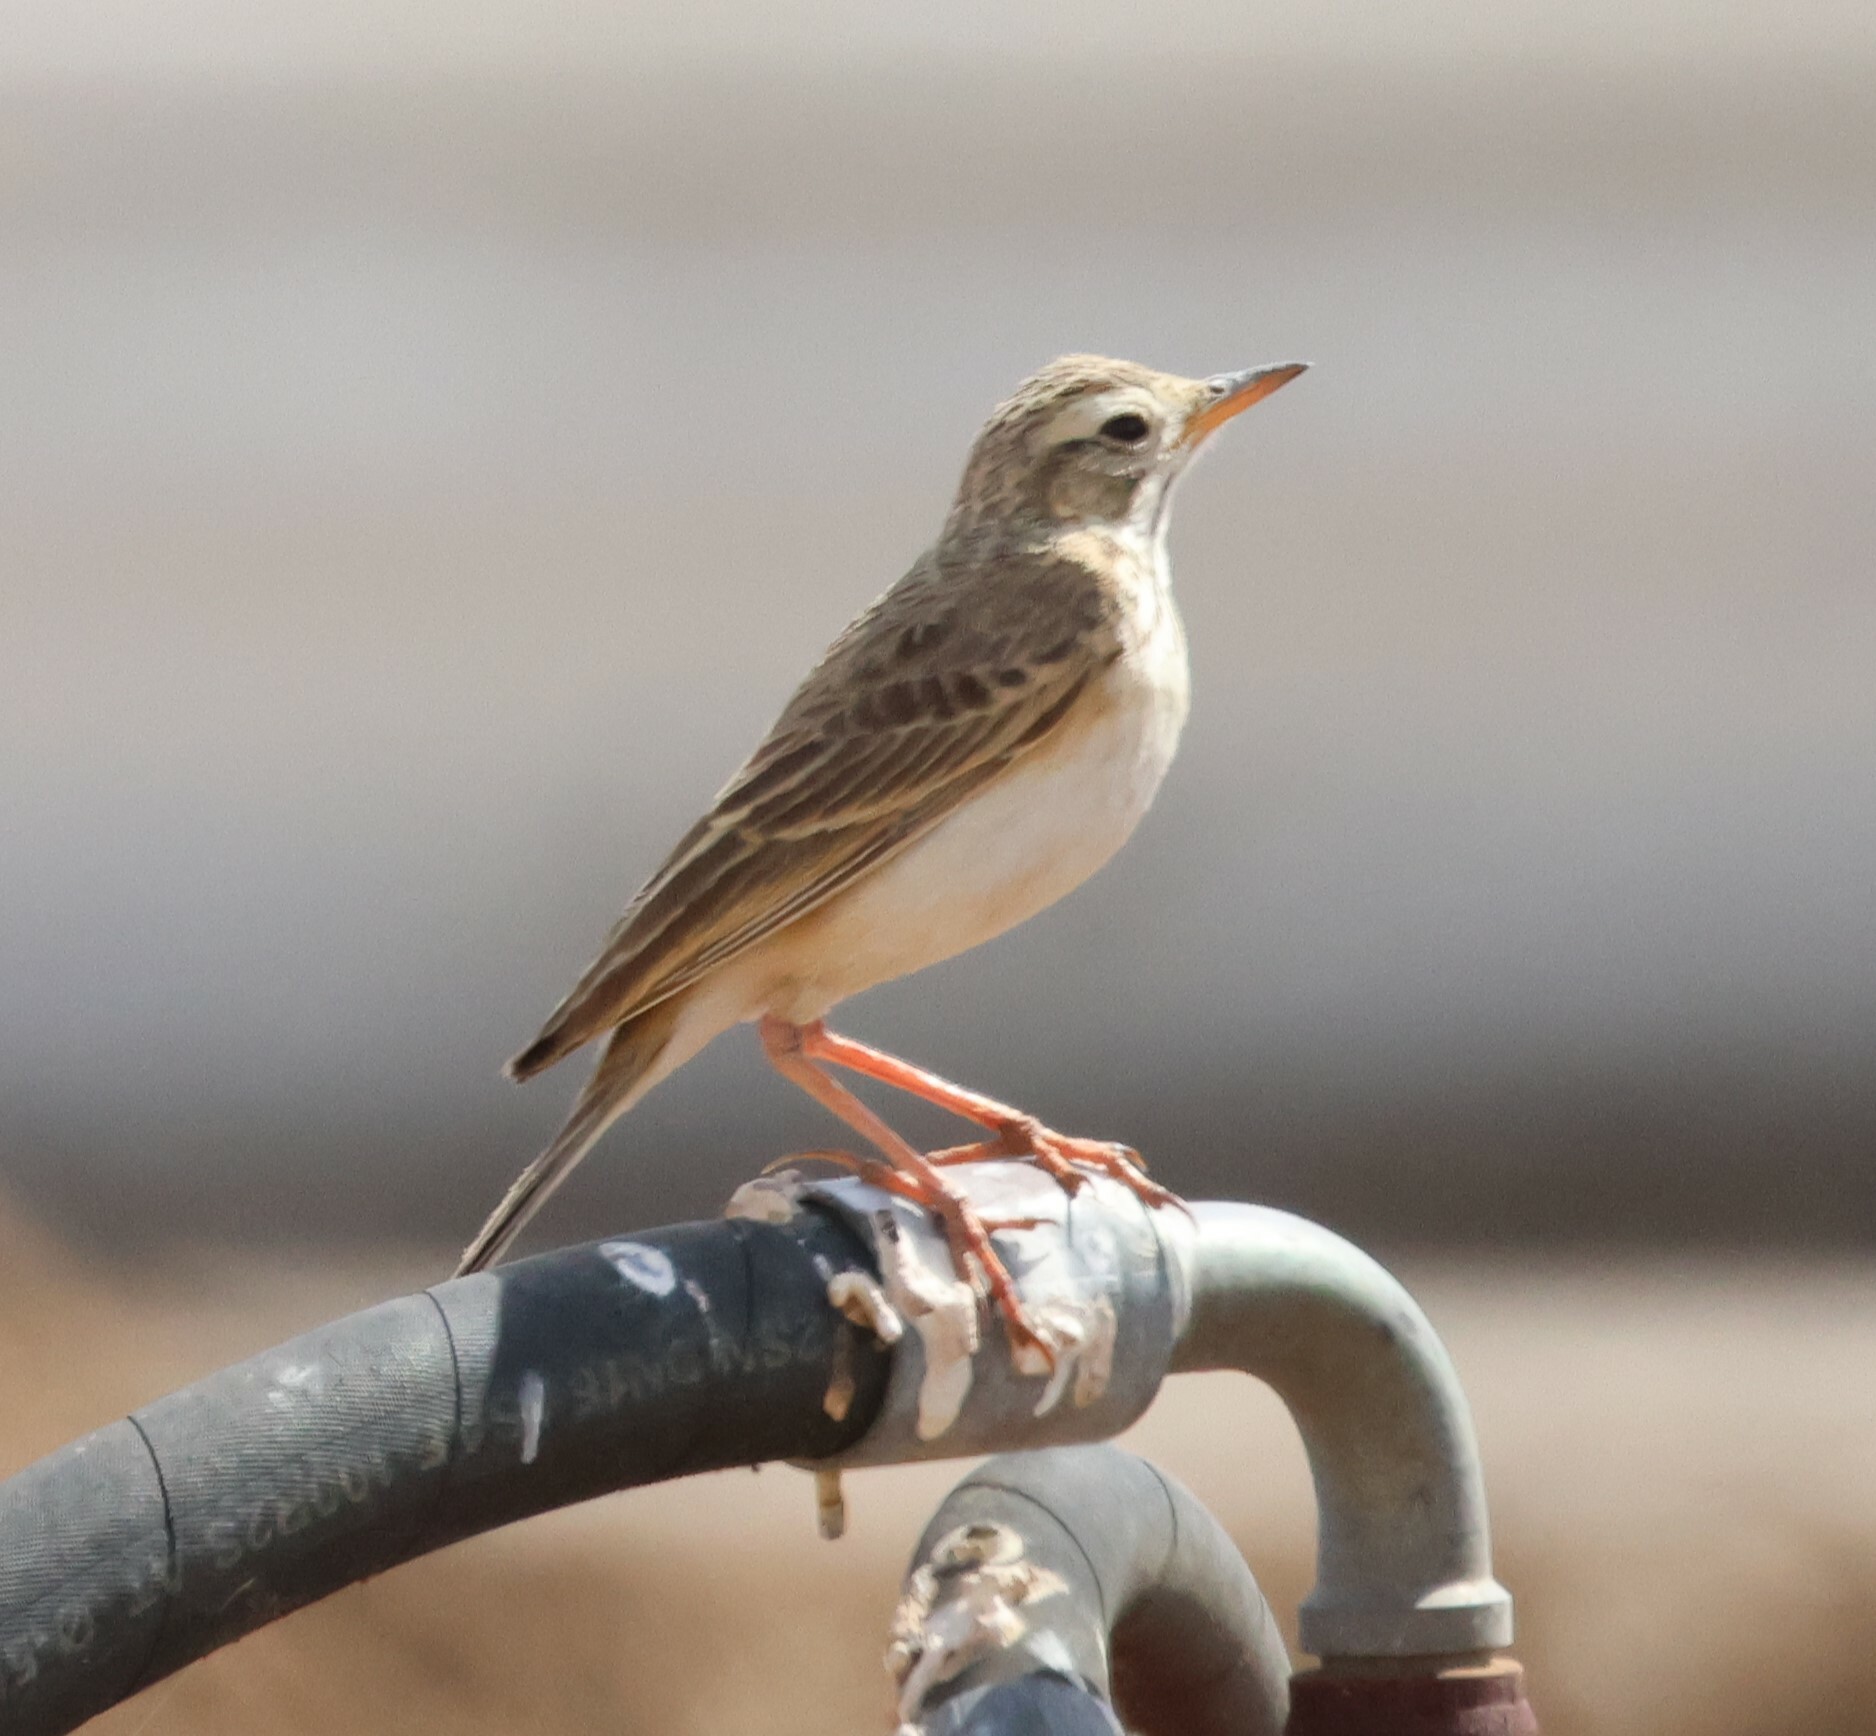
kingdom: Animalia
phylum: Chordata
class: Aves
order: Passeriformes
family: Motacillidae
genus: Anthus
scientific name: Anthus cinnamomeus
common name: African pipit
